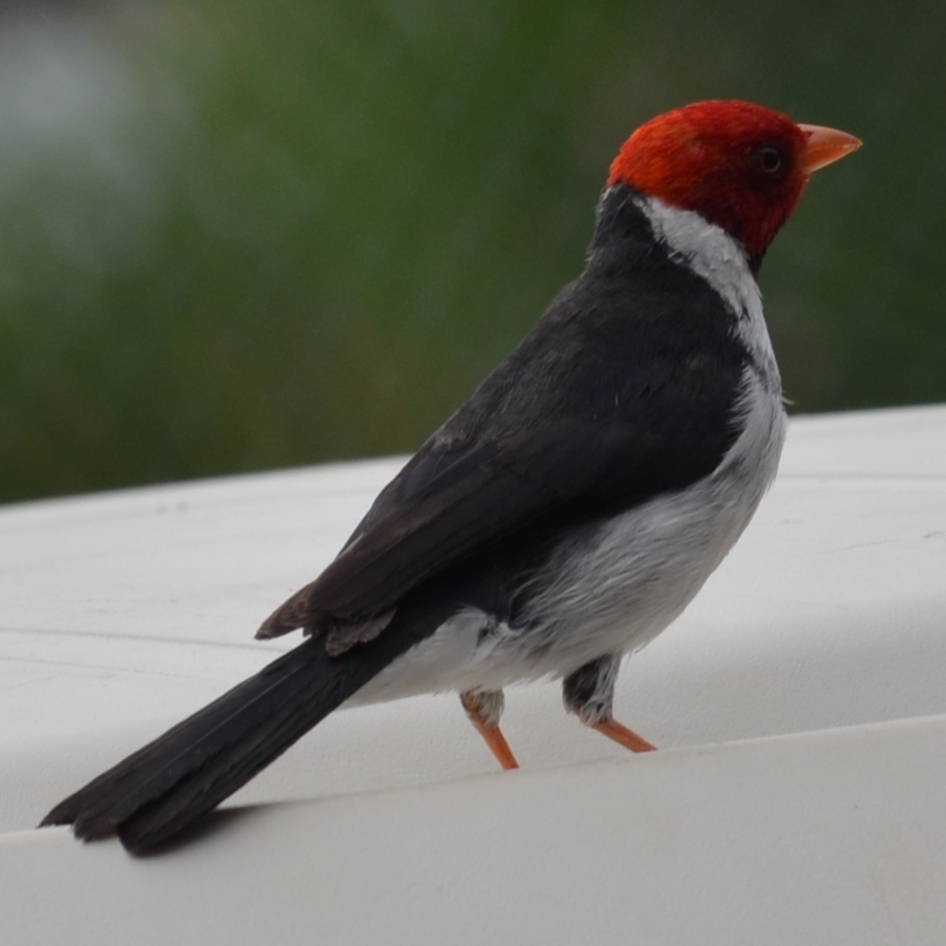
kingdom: Animalia
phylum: Chordata
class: Aves
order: Passeriformes
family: Thraupidae
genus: Paroaria
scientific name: Paroaria capitata
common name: Yellow-billed cardinal
